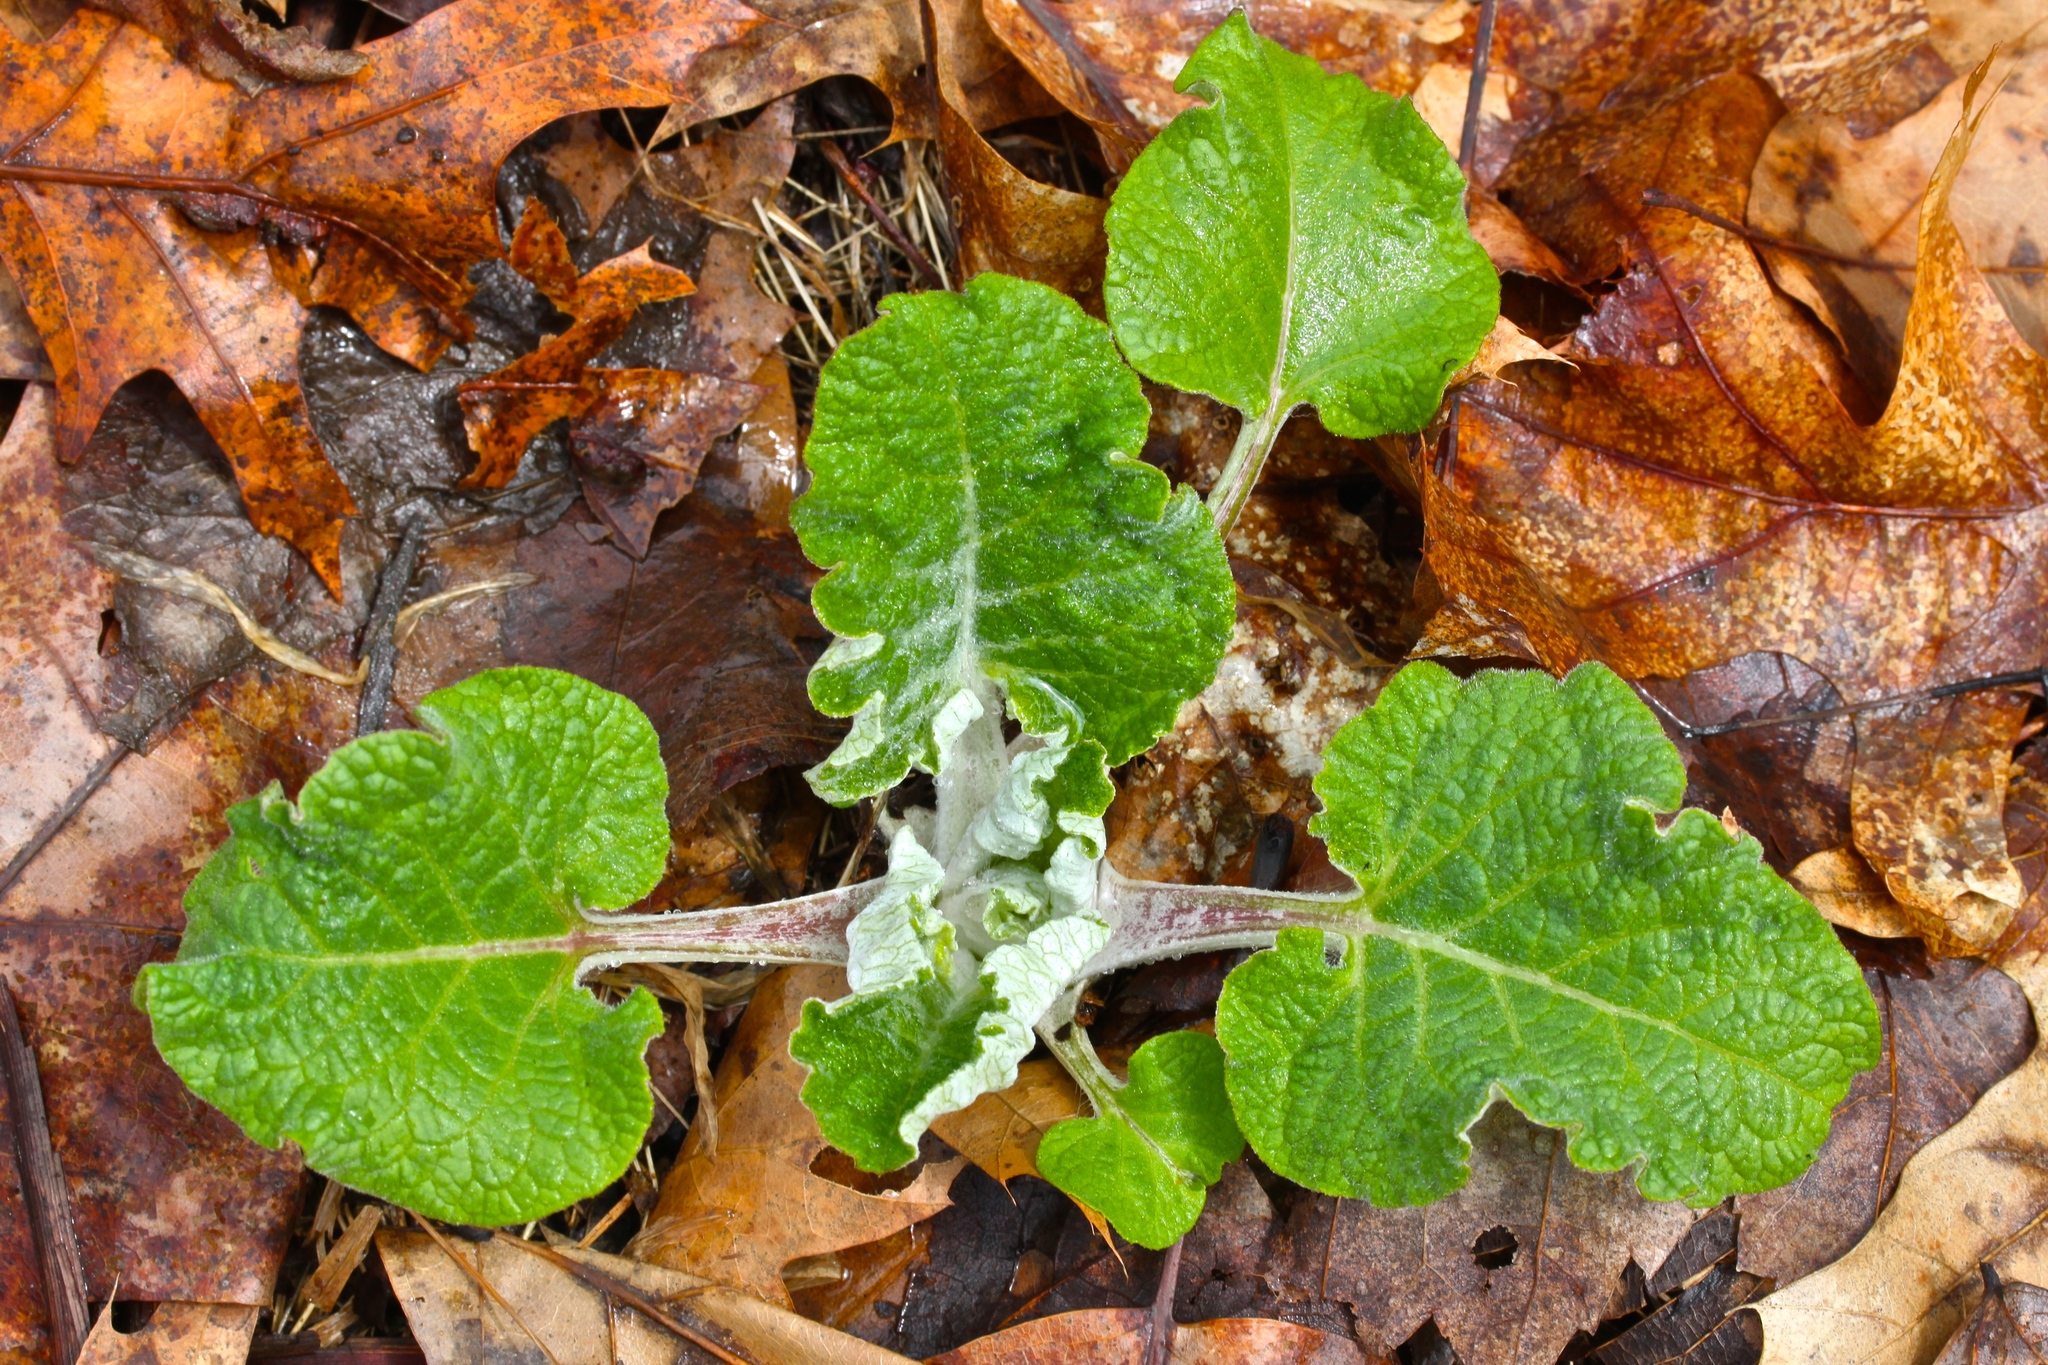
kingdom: Plantae
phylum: Tracheophyta
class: Magnoliopsida
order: Asterales
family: Asteraceae
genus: Arctium
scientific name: Arctium
